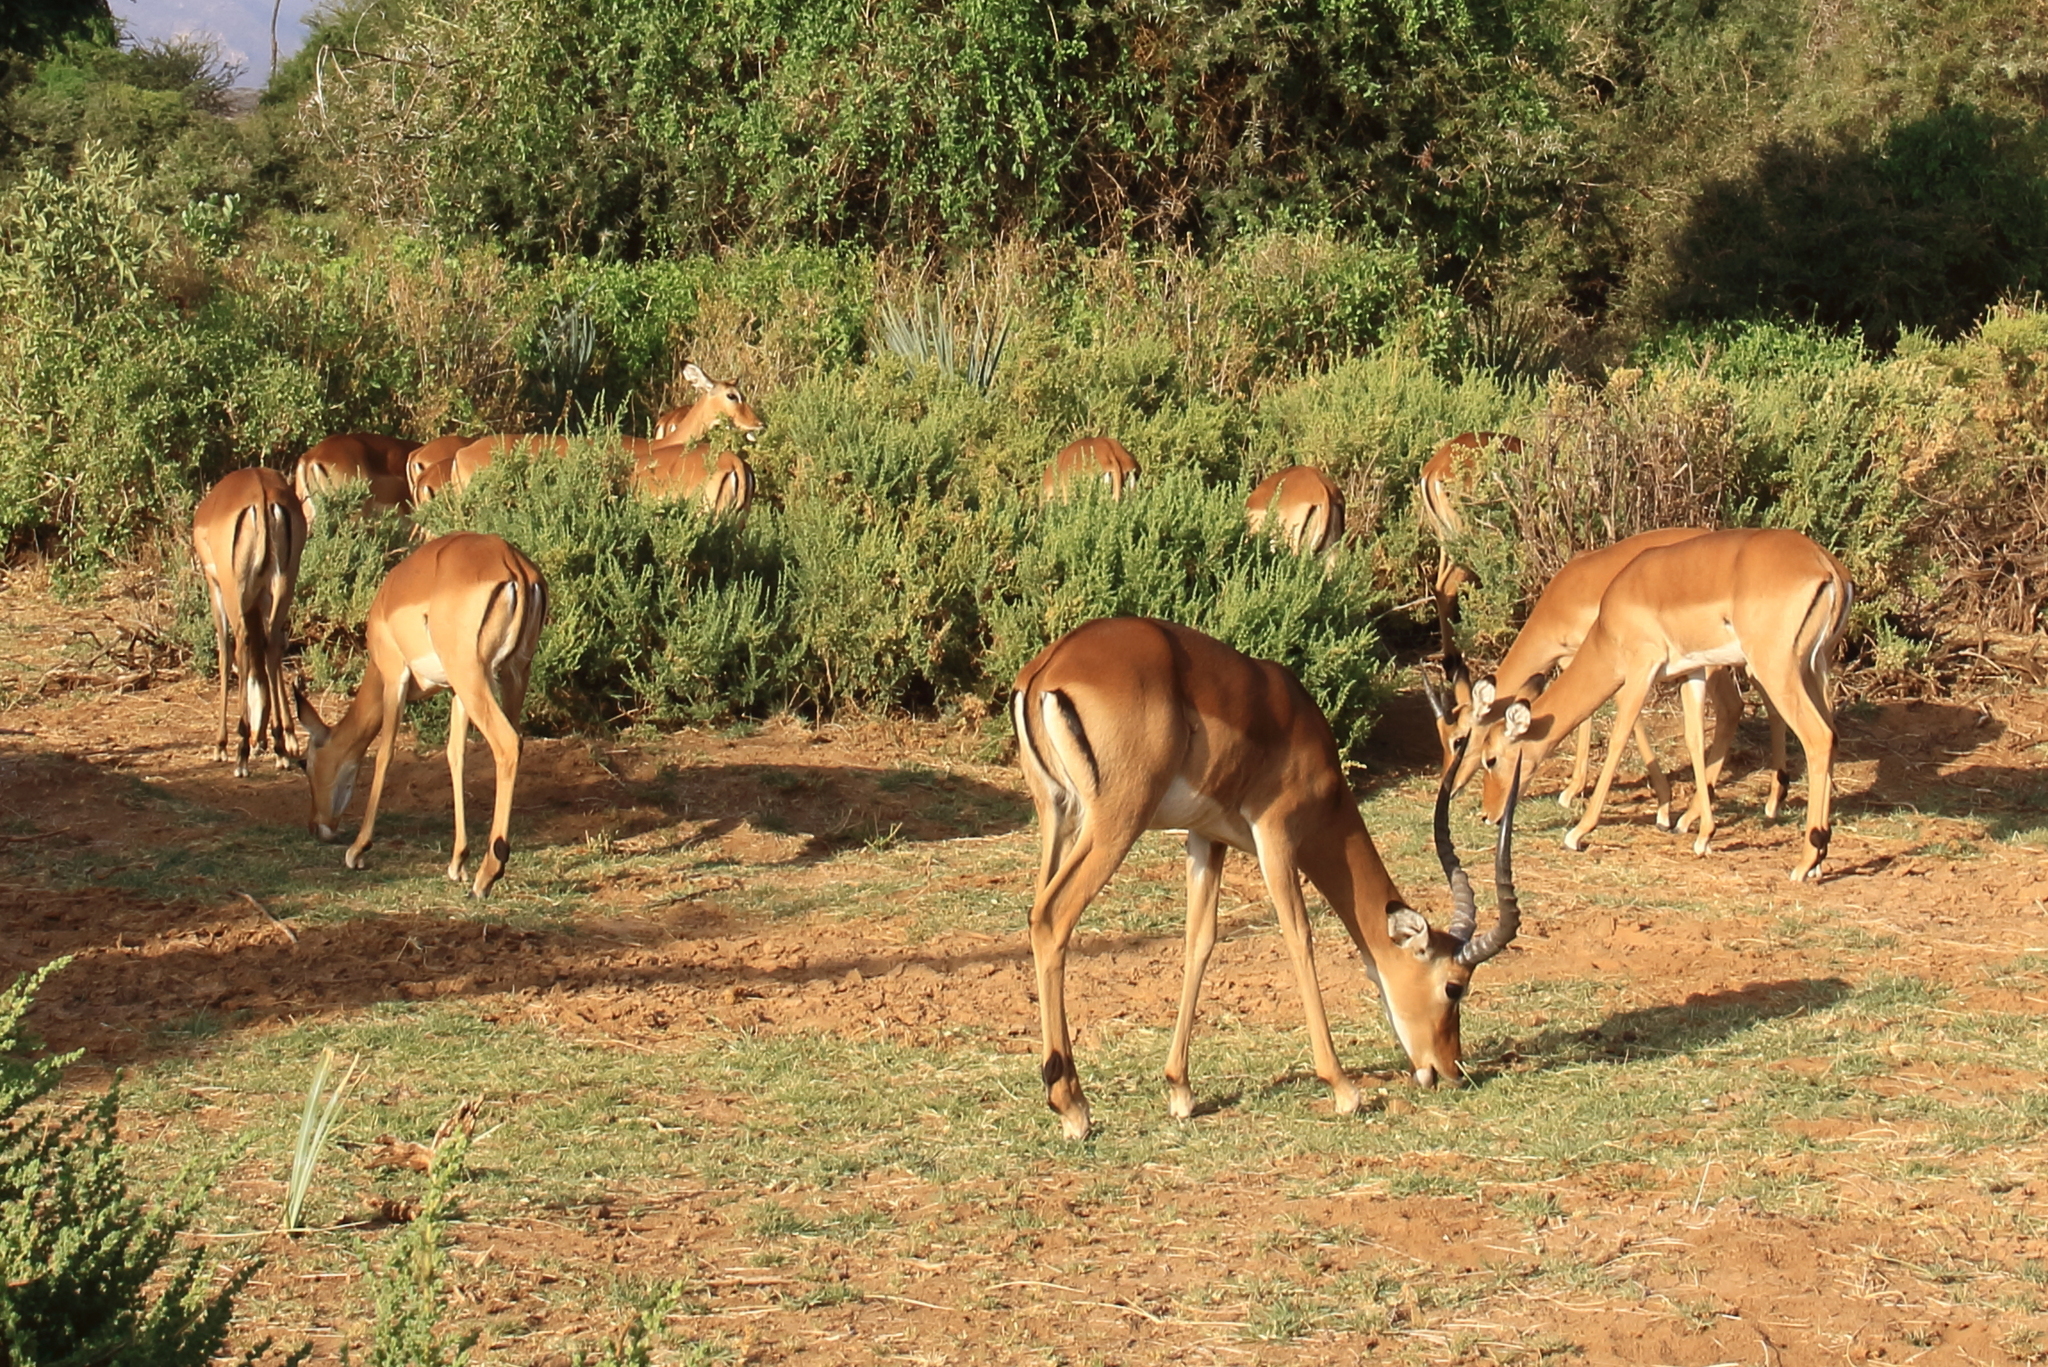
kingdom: Animalia
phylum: Chordata
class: Mammalia
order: Artiodactyla
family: Bovidae
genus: Aepyceros
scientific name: Aepyceros melampus
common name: Impala
